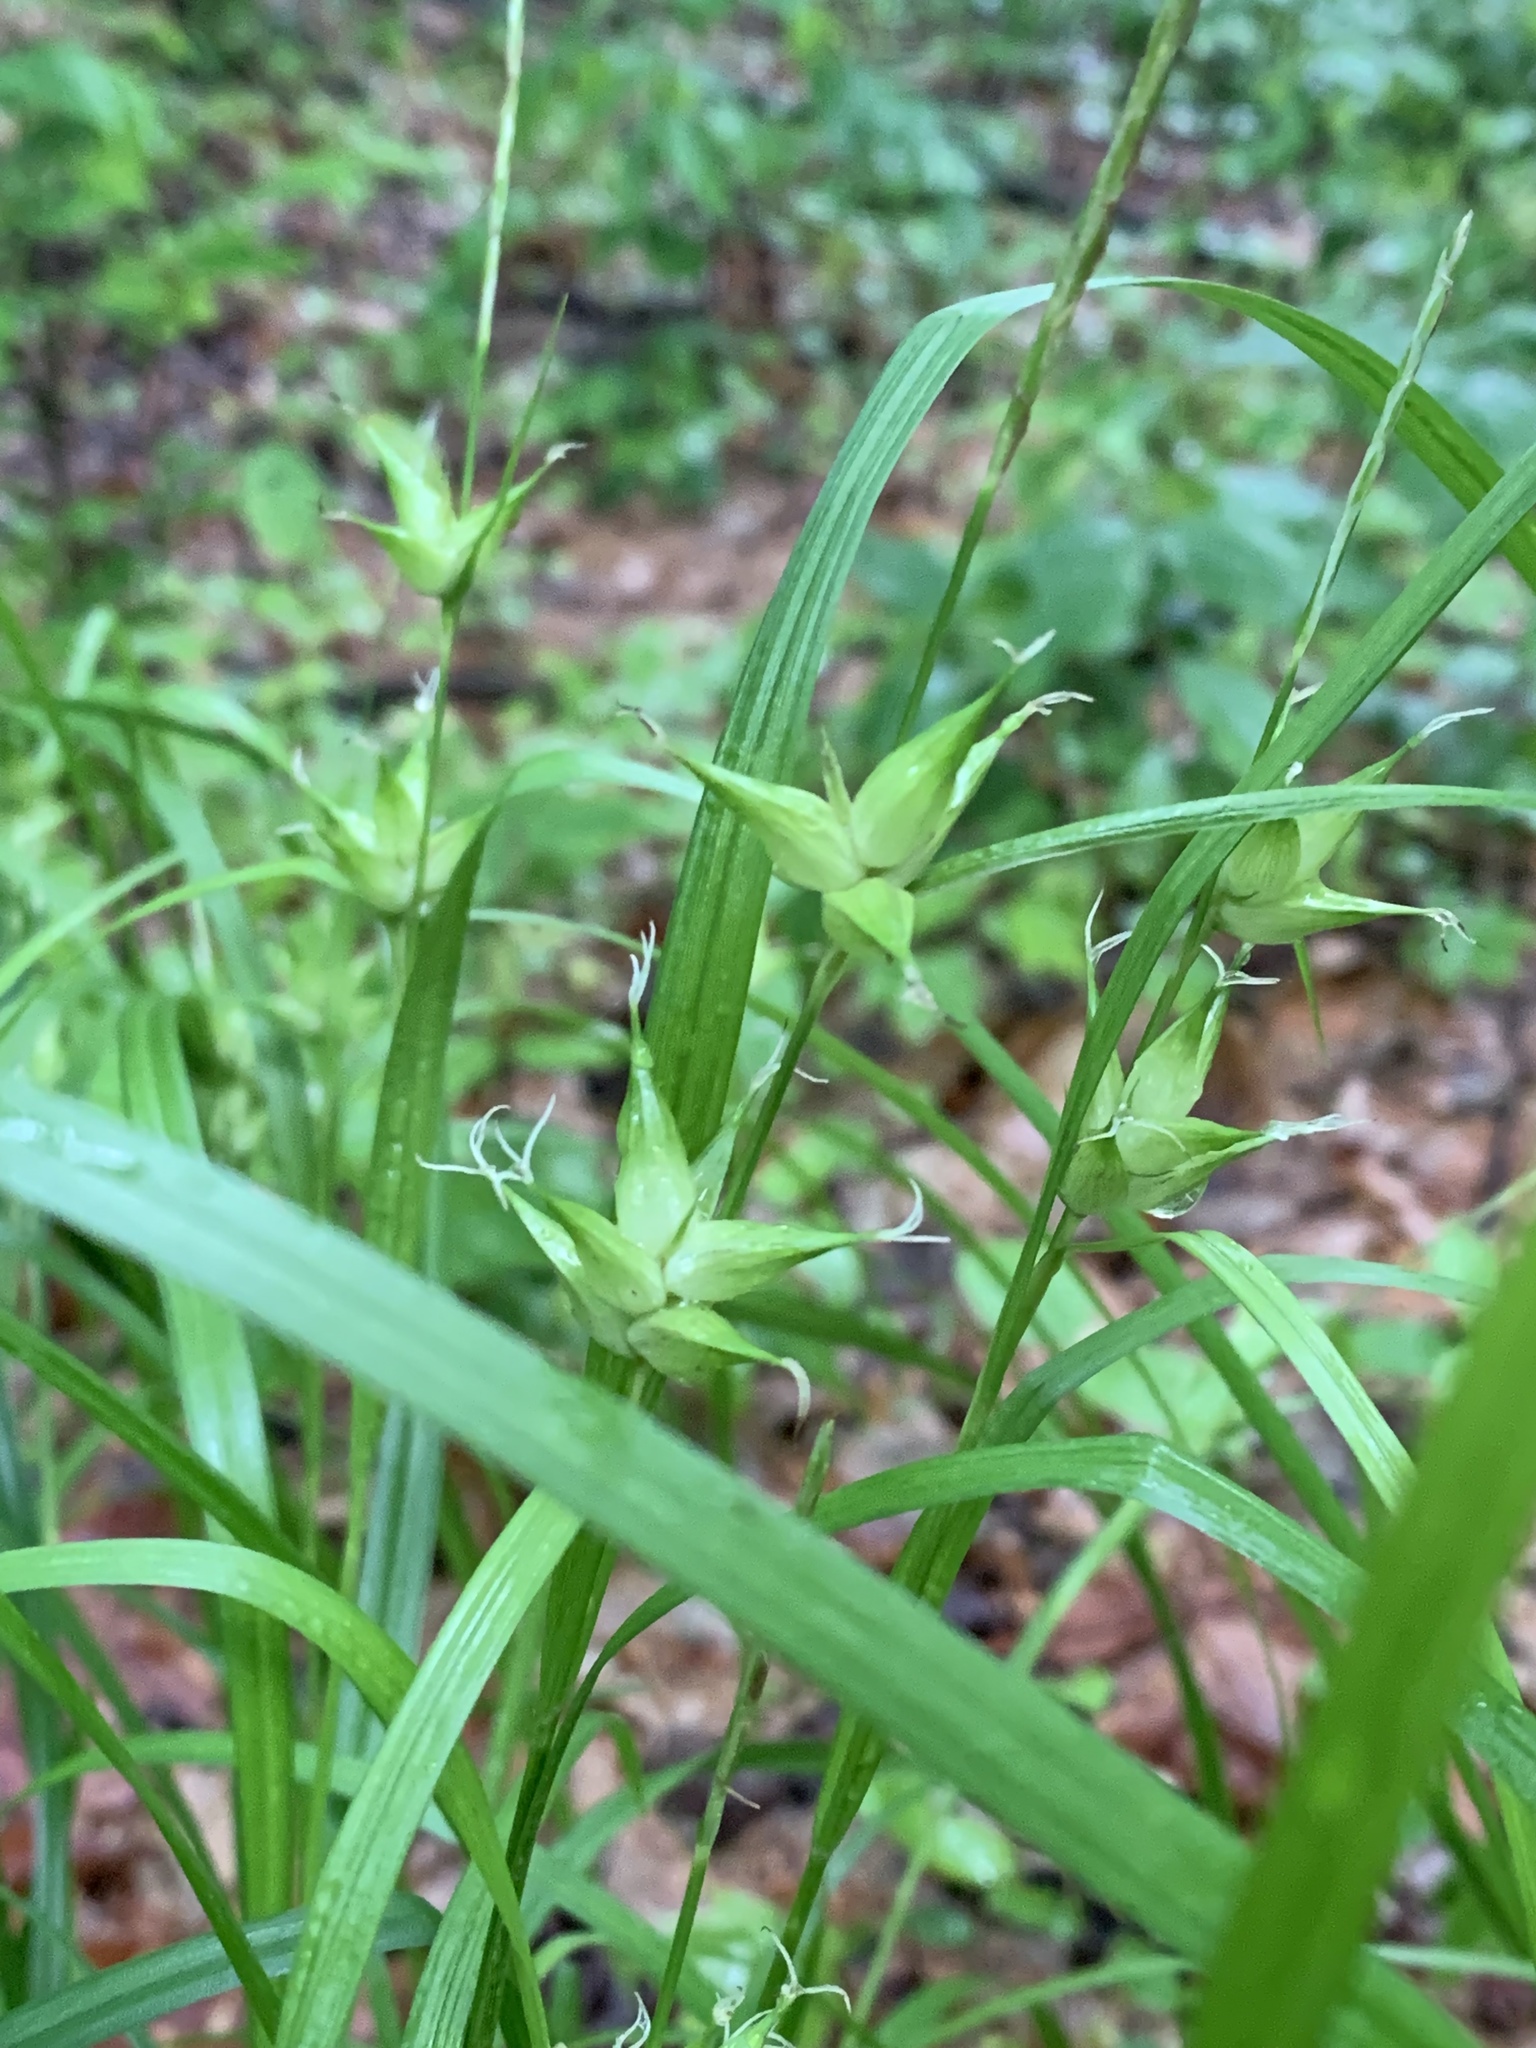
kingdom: Plantae
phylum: Tracheophyta
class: Liliopsida
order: Poales
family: Cyperaceae
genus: Carex
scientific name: Carex intumescens
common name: Greater bladder sedge
